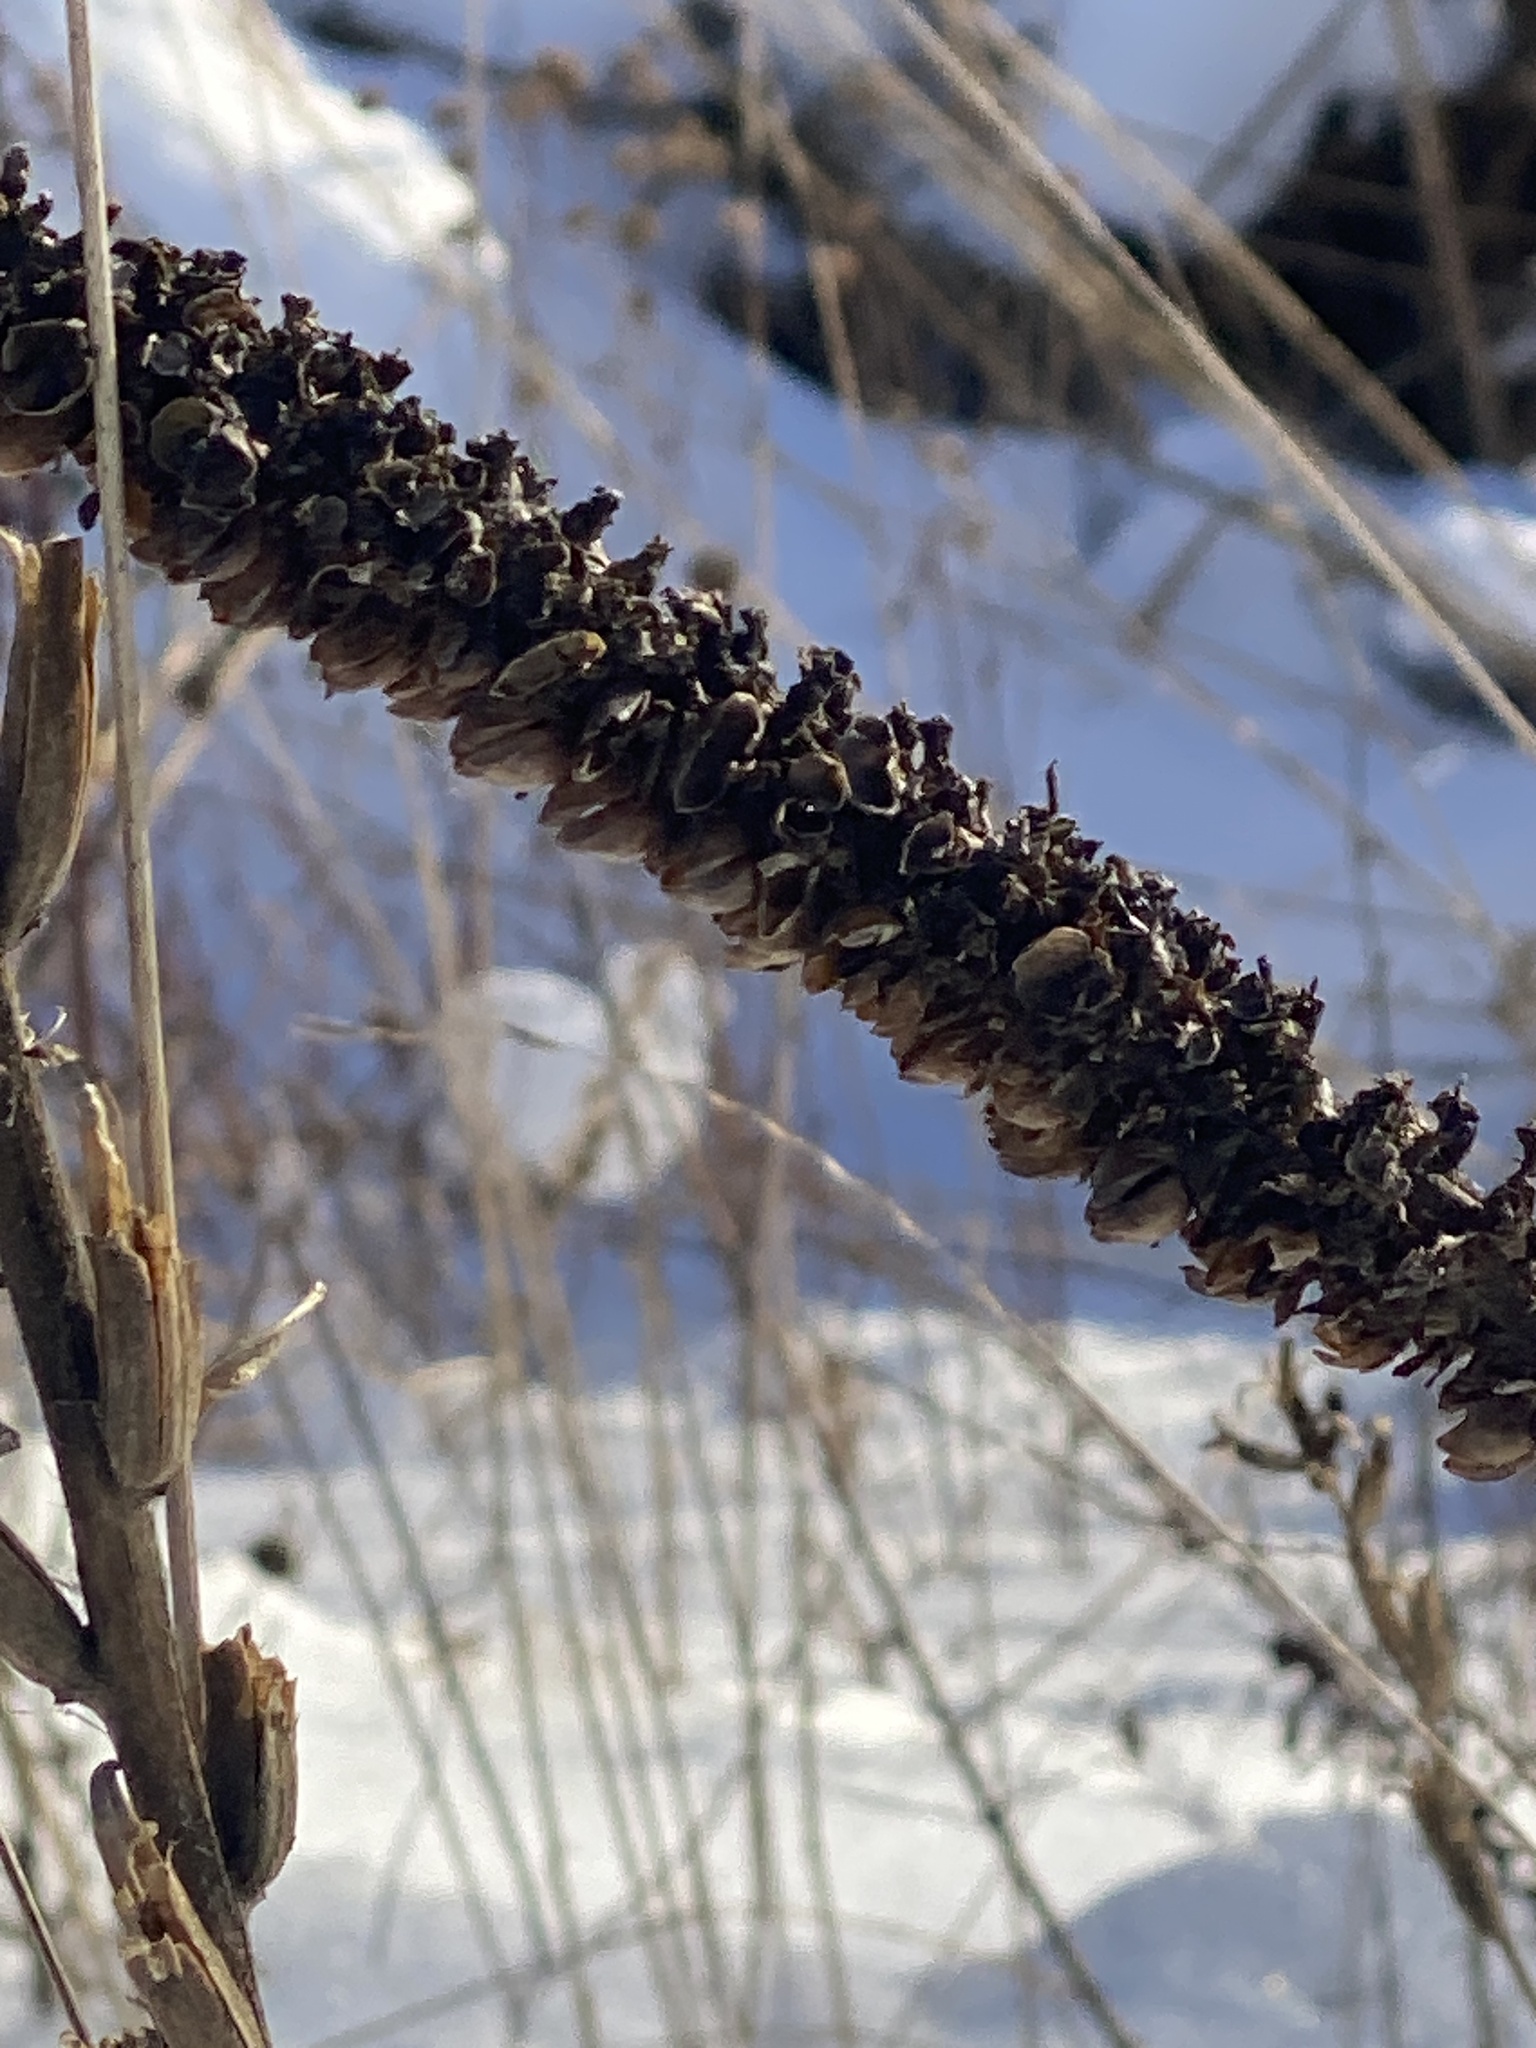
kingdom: Plantae
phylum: Tracheophyta
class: Magnoliopsida
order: Lamiales
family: Scrophulariaceae
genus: Verbascum
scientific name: Verbascum thapsus
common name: Common mullein
